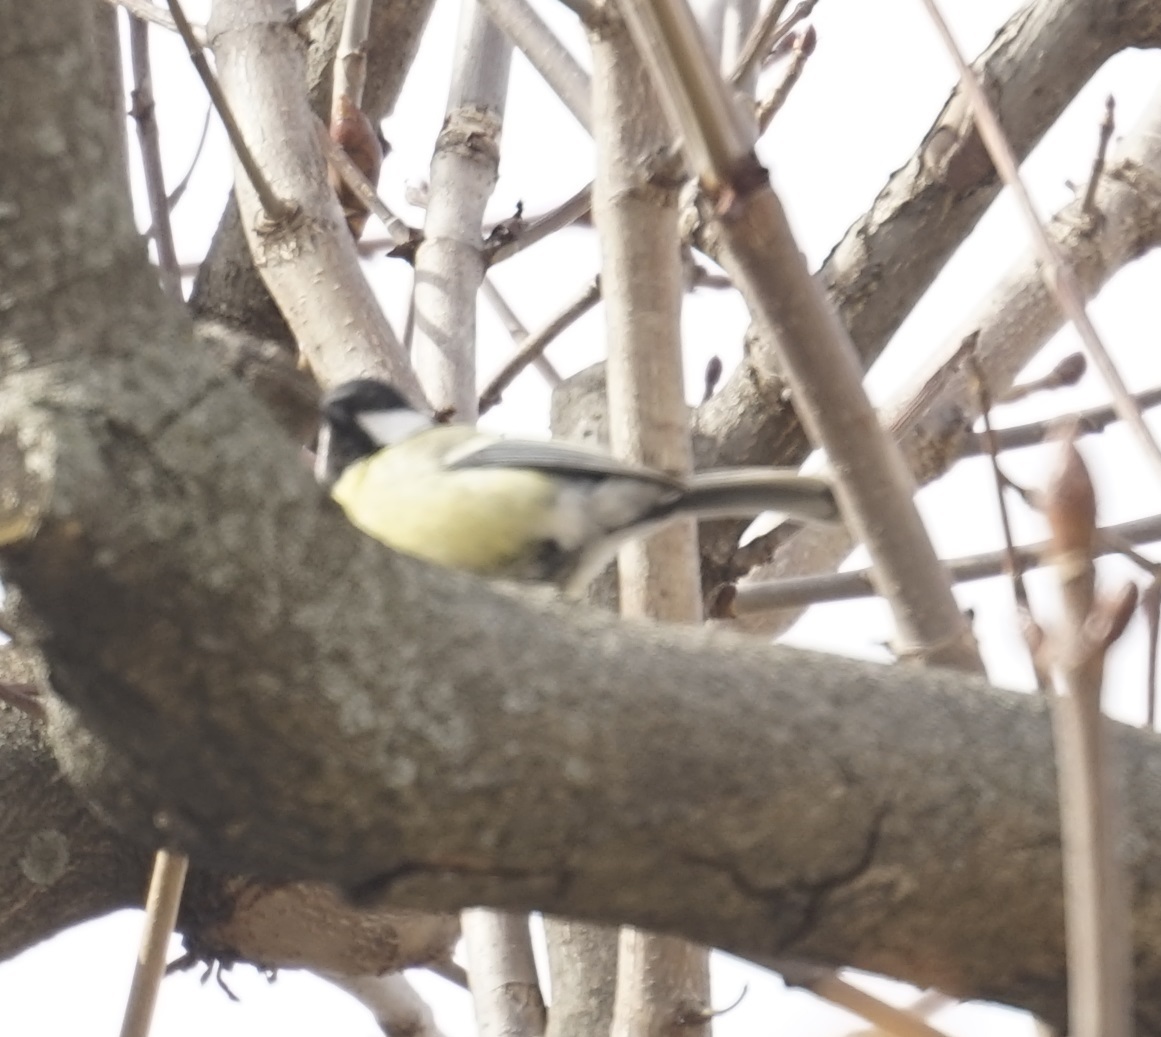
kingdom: Animalia
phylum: Chordata
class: Aves
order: Passeriformes
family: Paridae
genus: Parus
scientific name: Parus major
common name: Great tit
